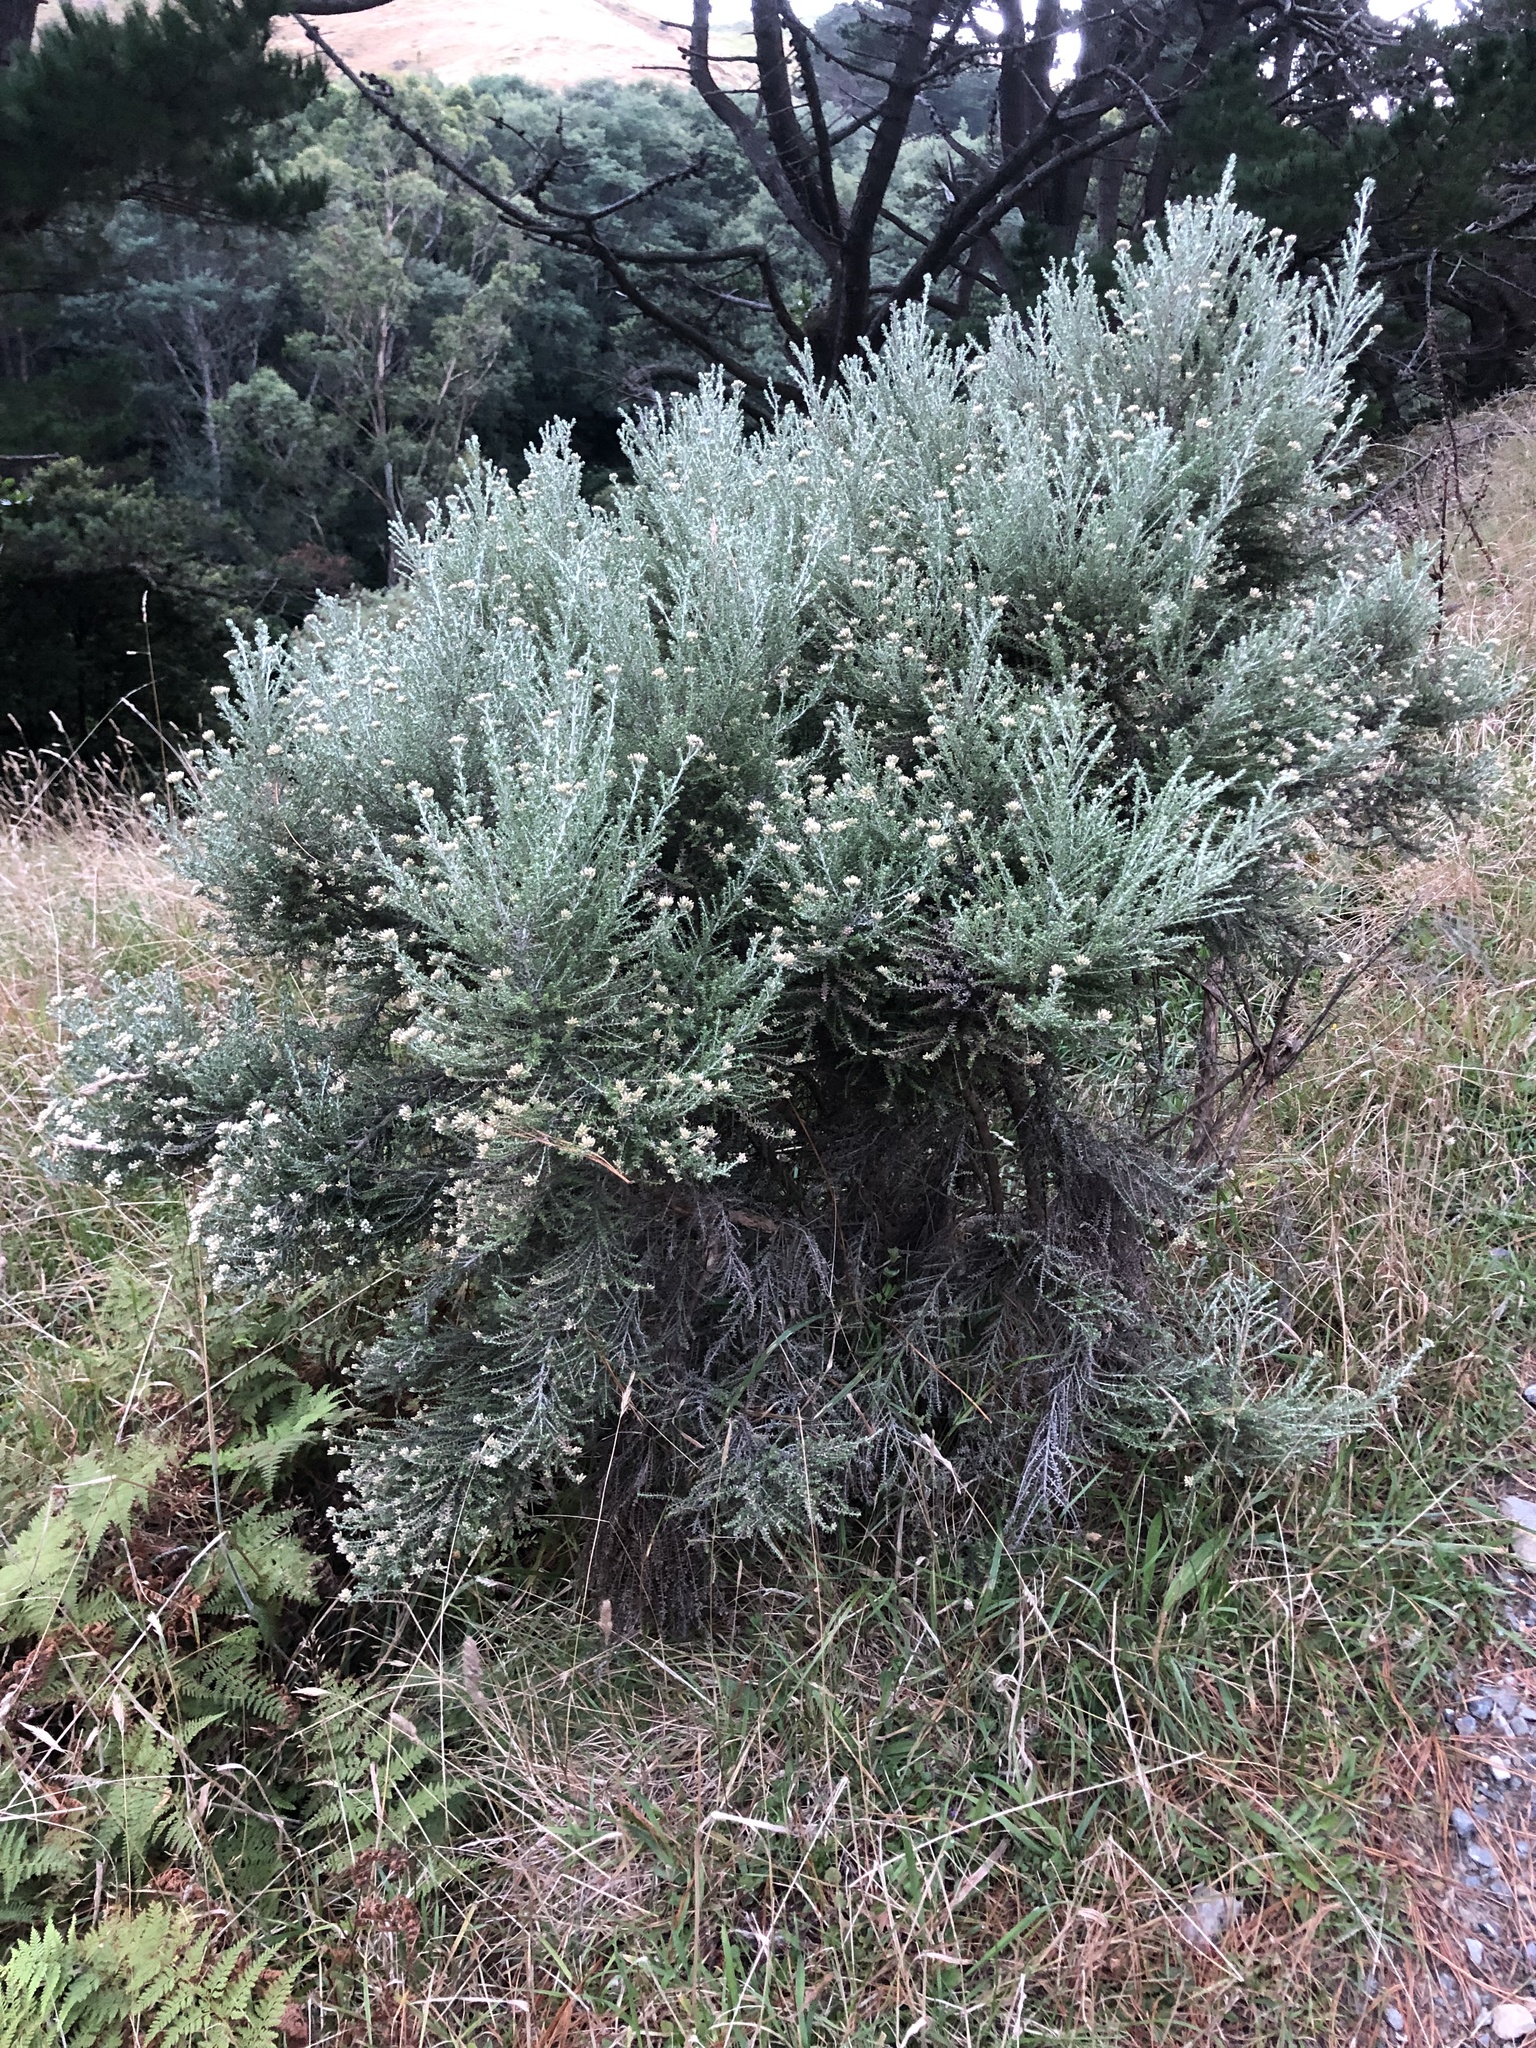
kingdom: Plantae
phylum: Tracheophyta
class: Magnoliopsida
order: Asterales
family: Asteraceae
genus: Ozothamnus
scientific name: Ozothamnus leptophyllus
